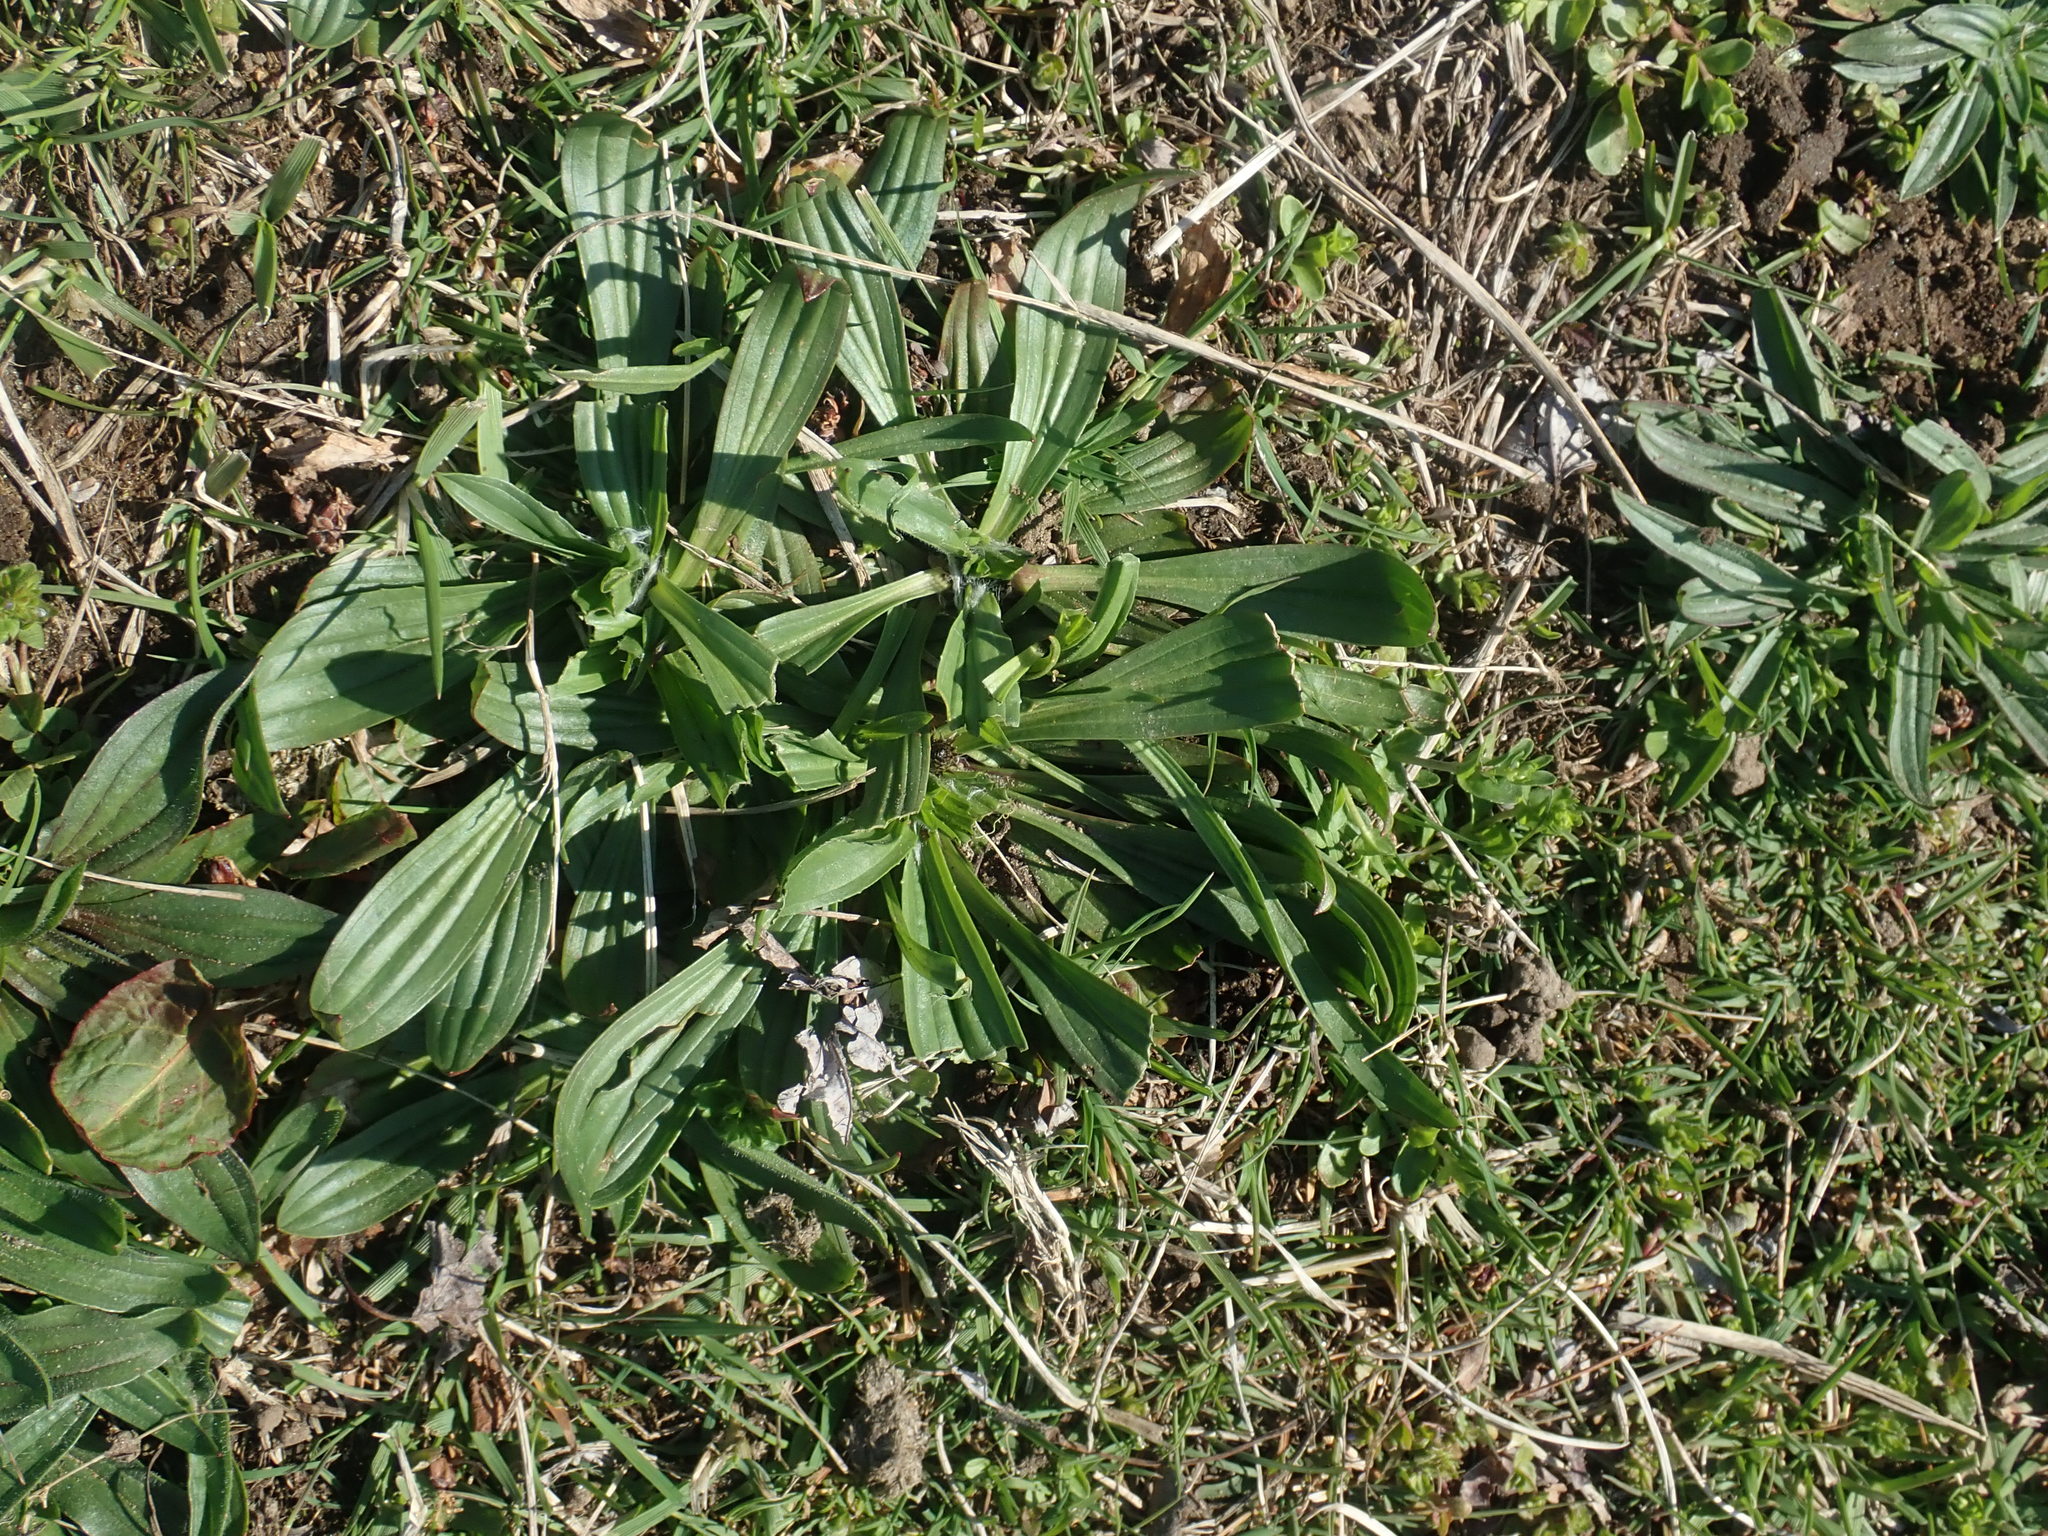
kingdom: Plantae
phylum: Tracheophyta
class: Magnoliopsida
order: Lamiales
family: Plantaginaceae
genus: Plantago
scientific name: Plantago lanceolata
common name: Ribwort plantain
